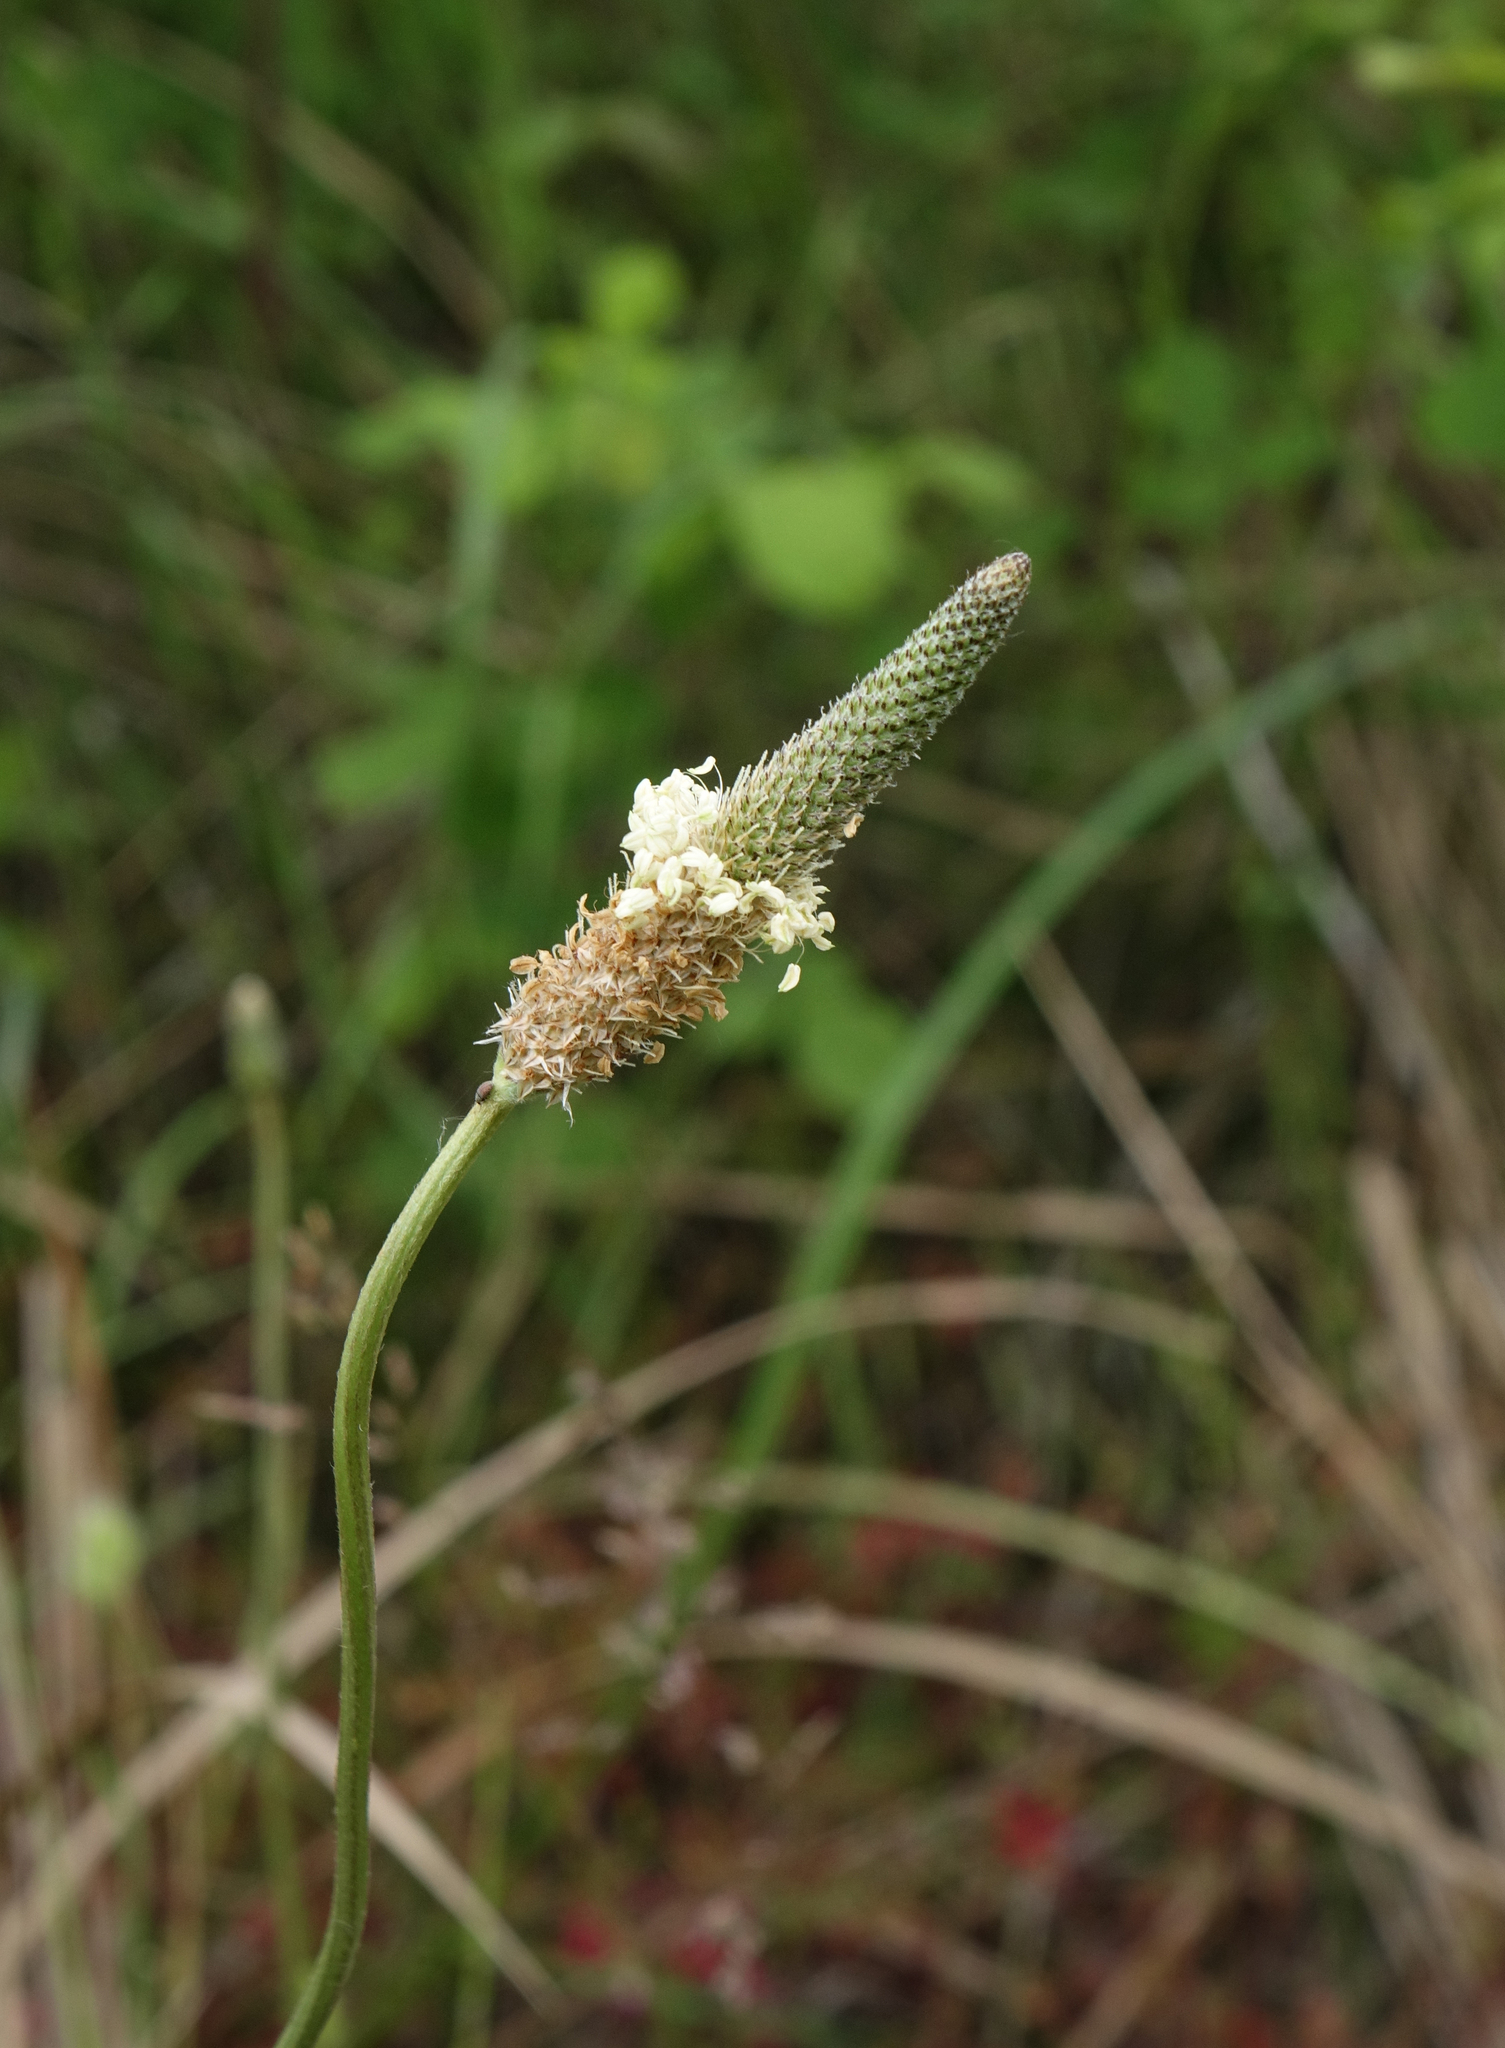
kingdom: Plantae
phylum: Tracheophyta
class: Magnoliopsida
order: Lamiales
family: Plantaginaceae
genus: Plantago
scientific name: Plantago lanceolata
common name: Ribwort plantain
